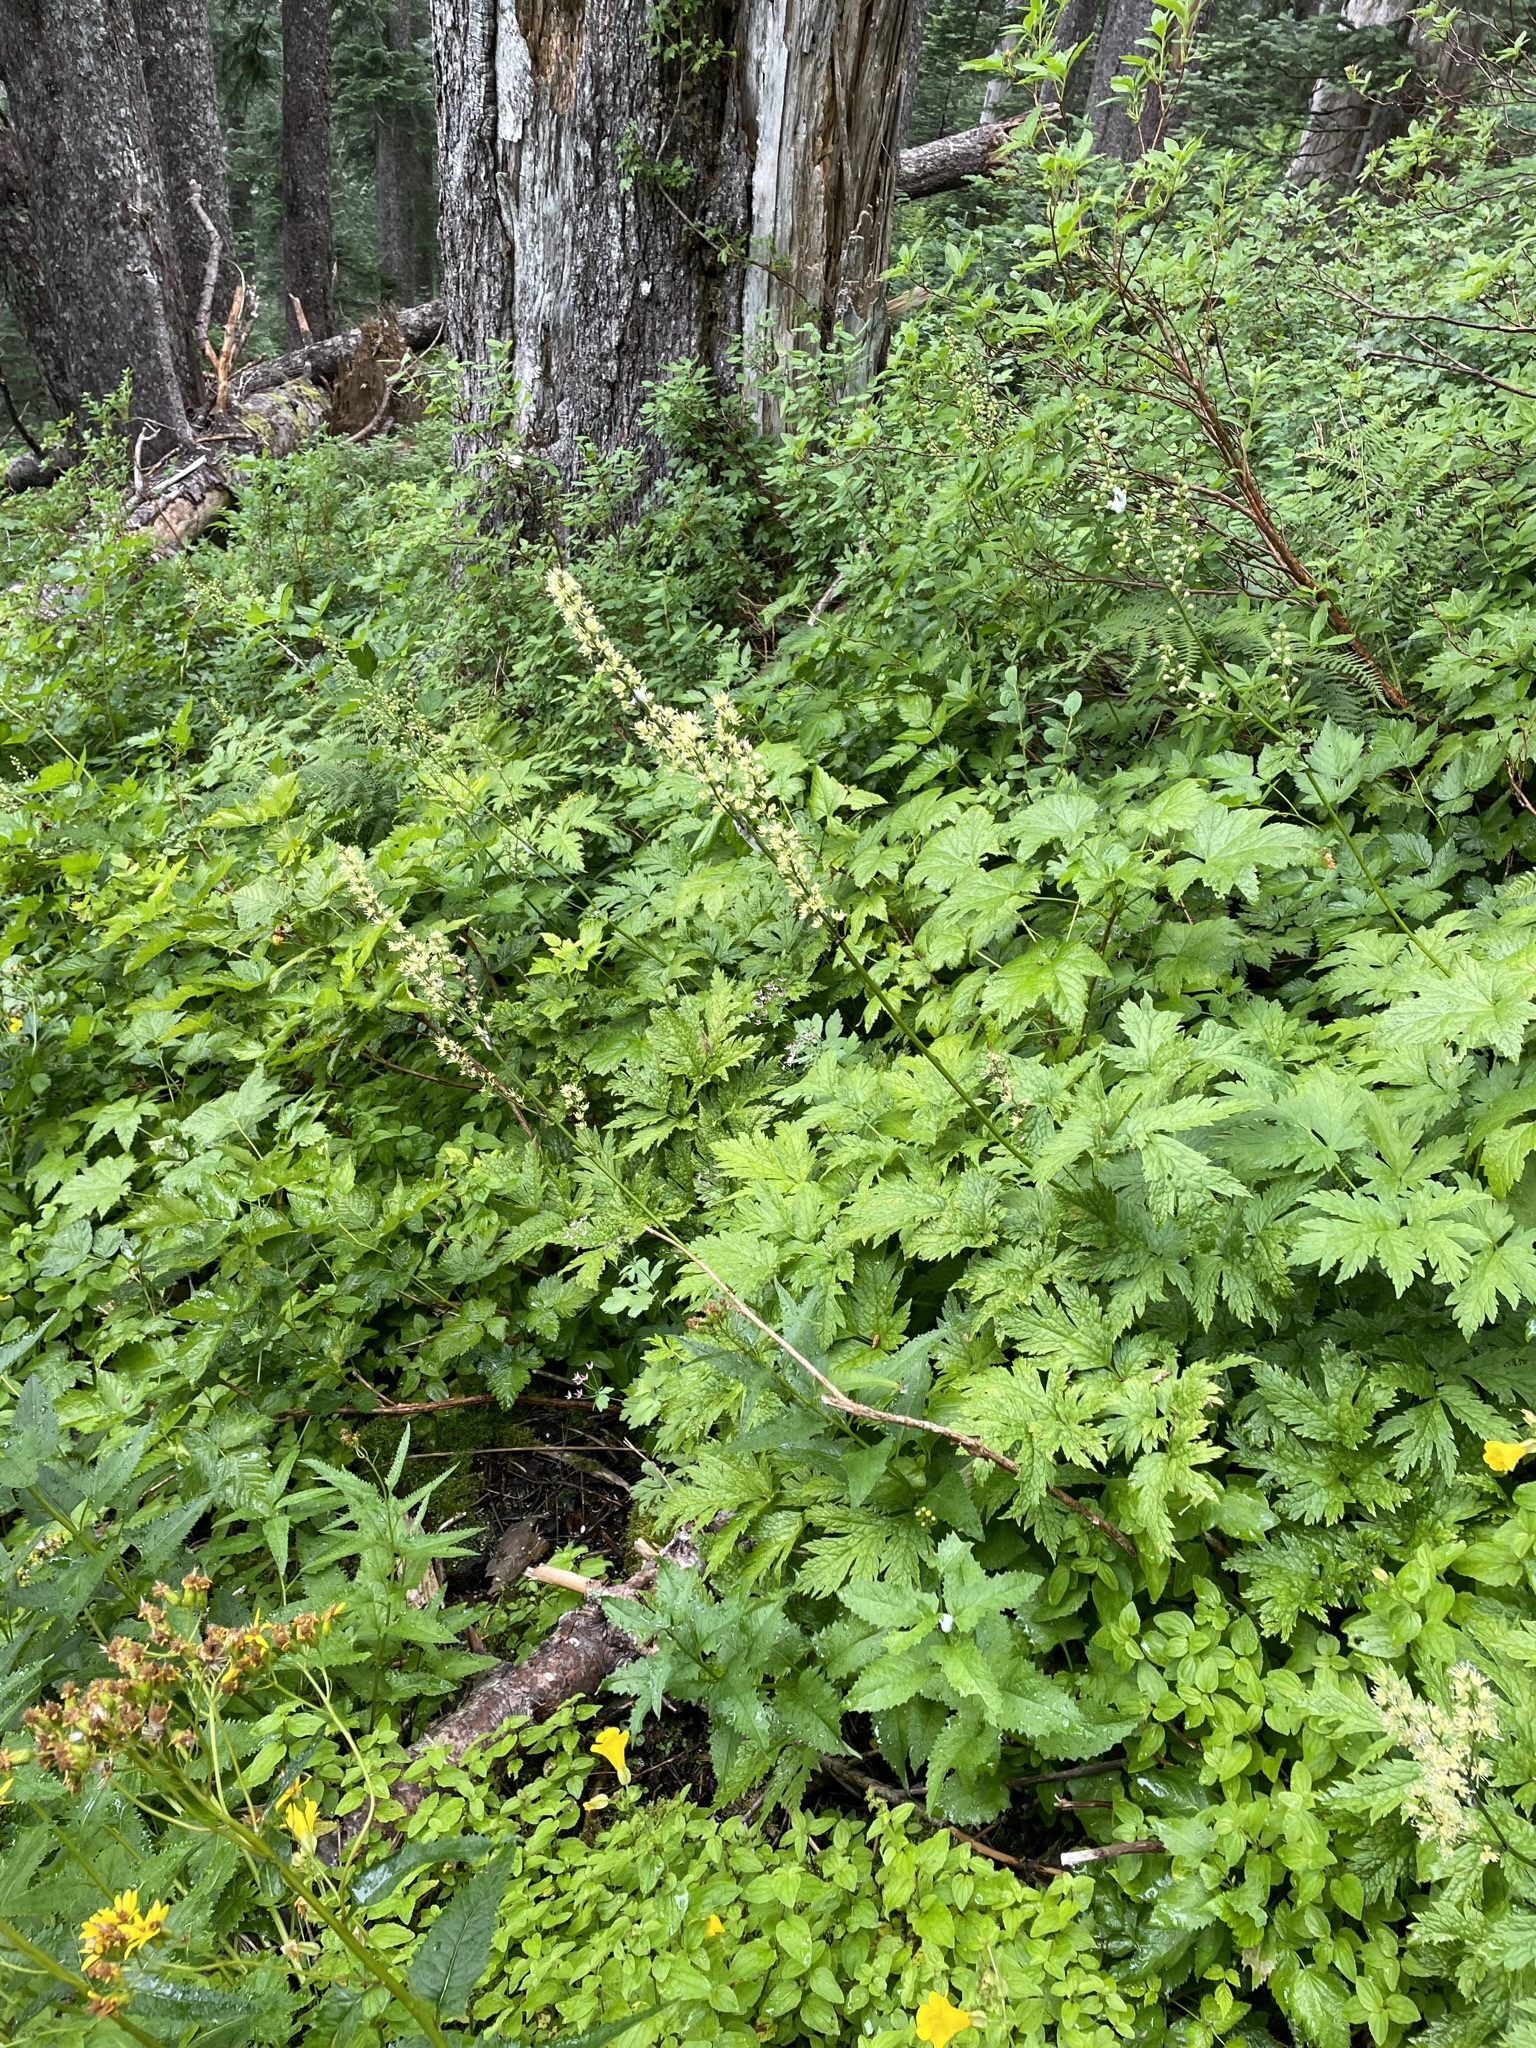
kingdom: Plantae
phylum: Tracheophyta
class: Magnoliopsida
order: Ranunculales
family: Ranunculaceae
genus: Actaea
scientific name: Actaea laciniata
